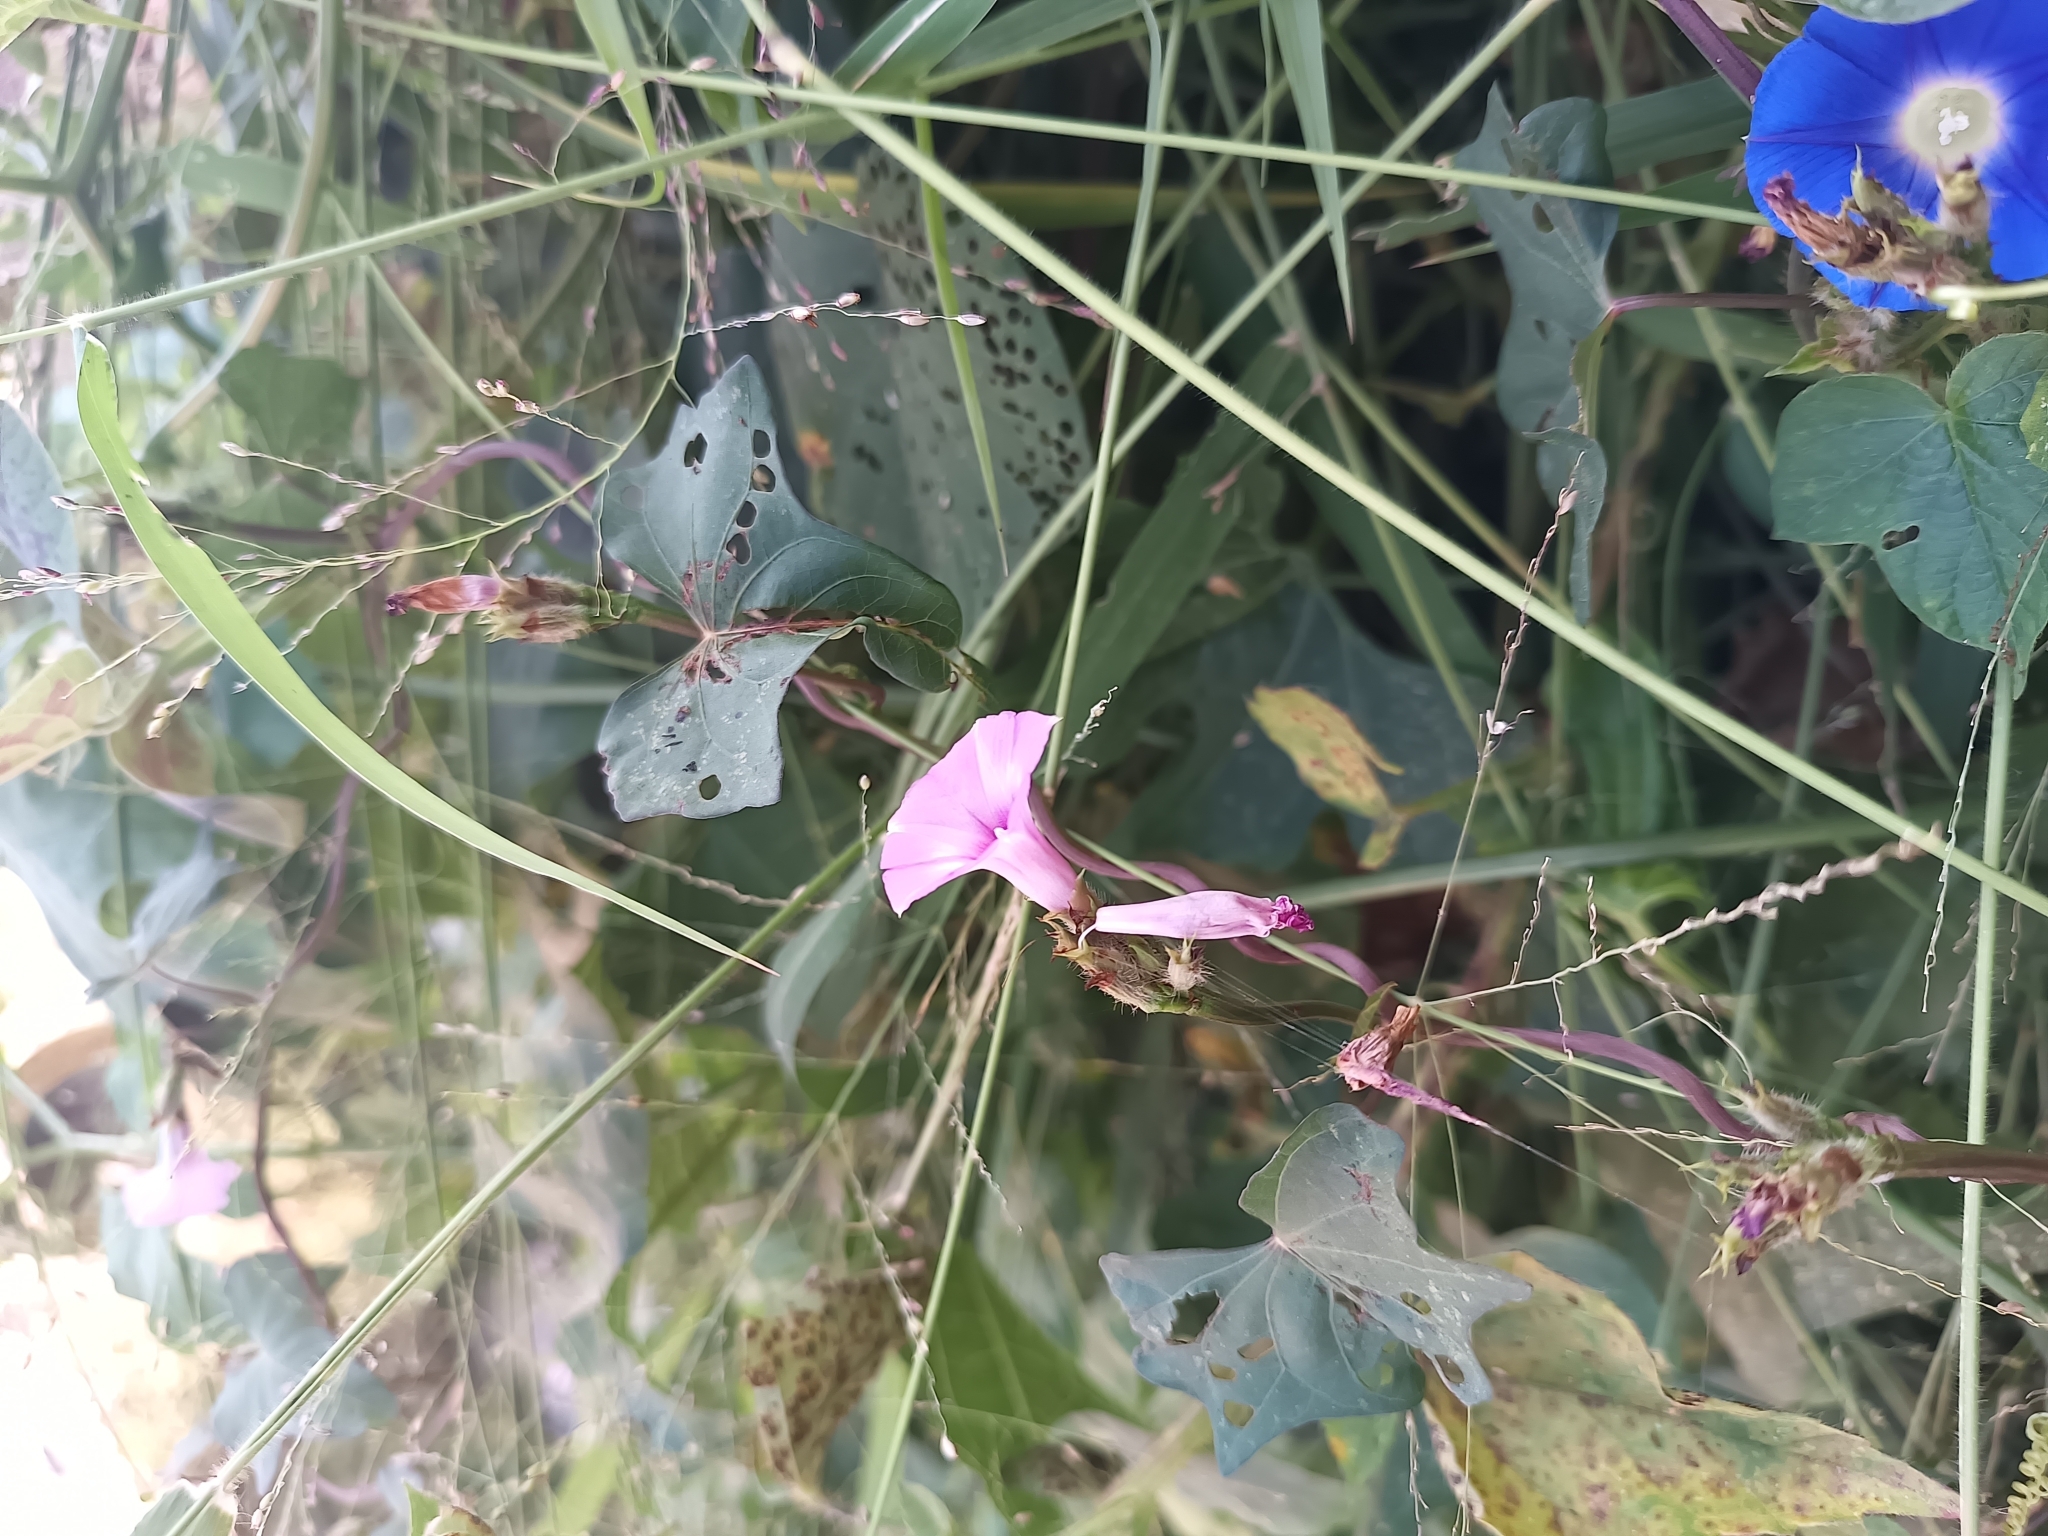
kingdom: Plantae
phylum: Tracheophyta
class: Magnoliopsida
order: Solanales
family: Convolvulaceae
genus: Ipomoea
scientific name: Ipomoea triloba
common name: Little-bell
